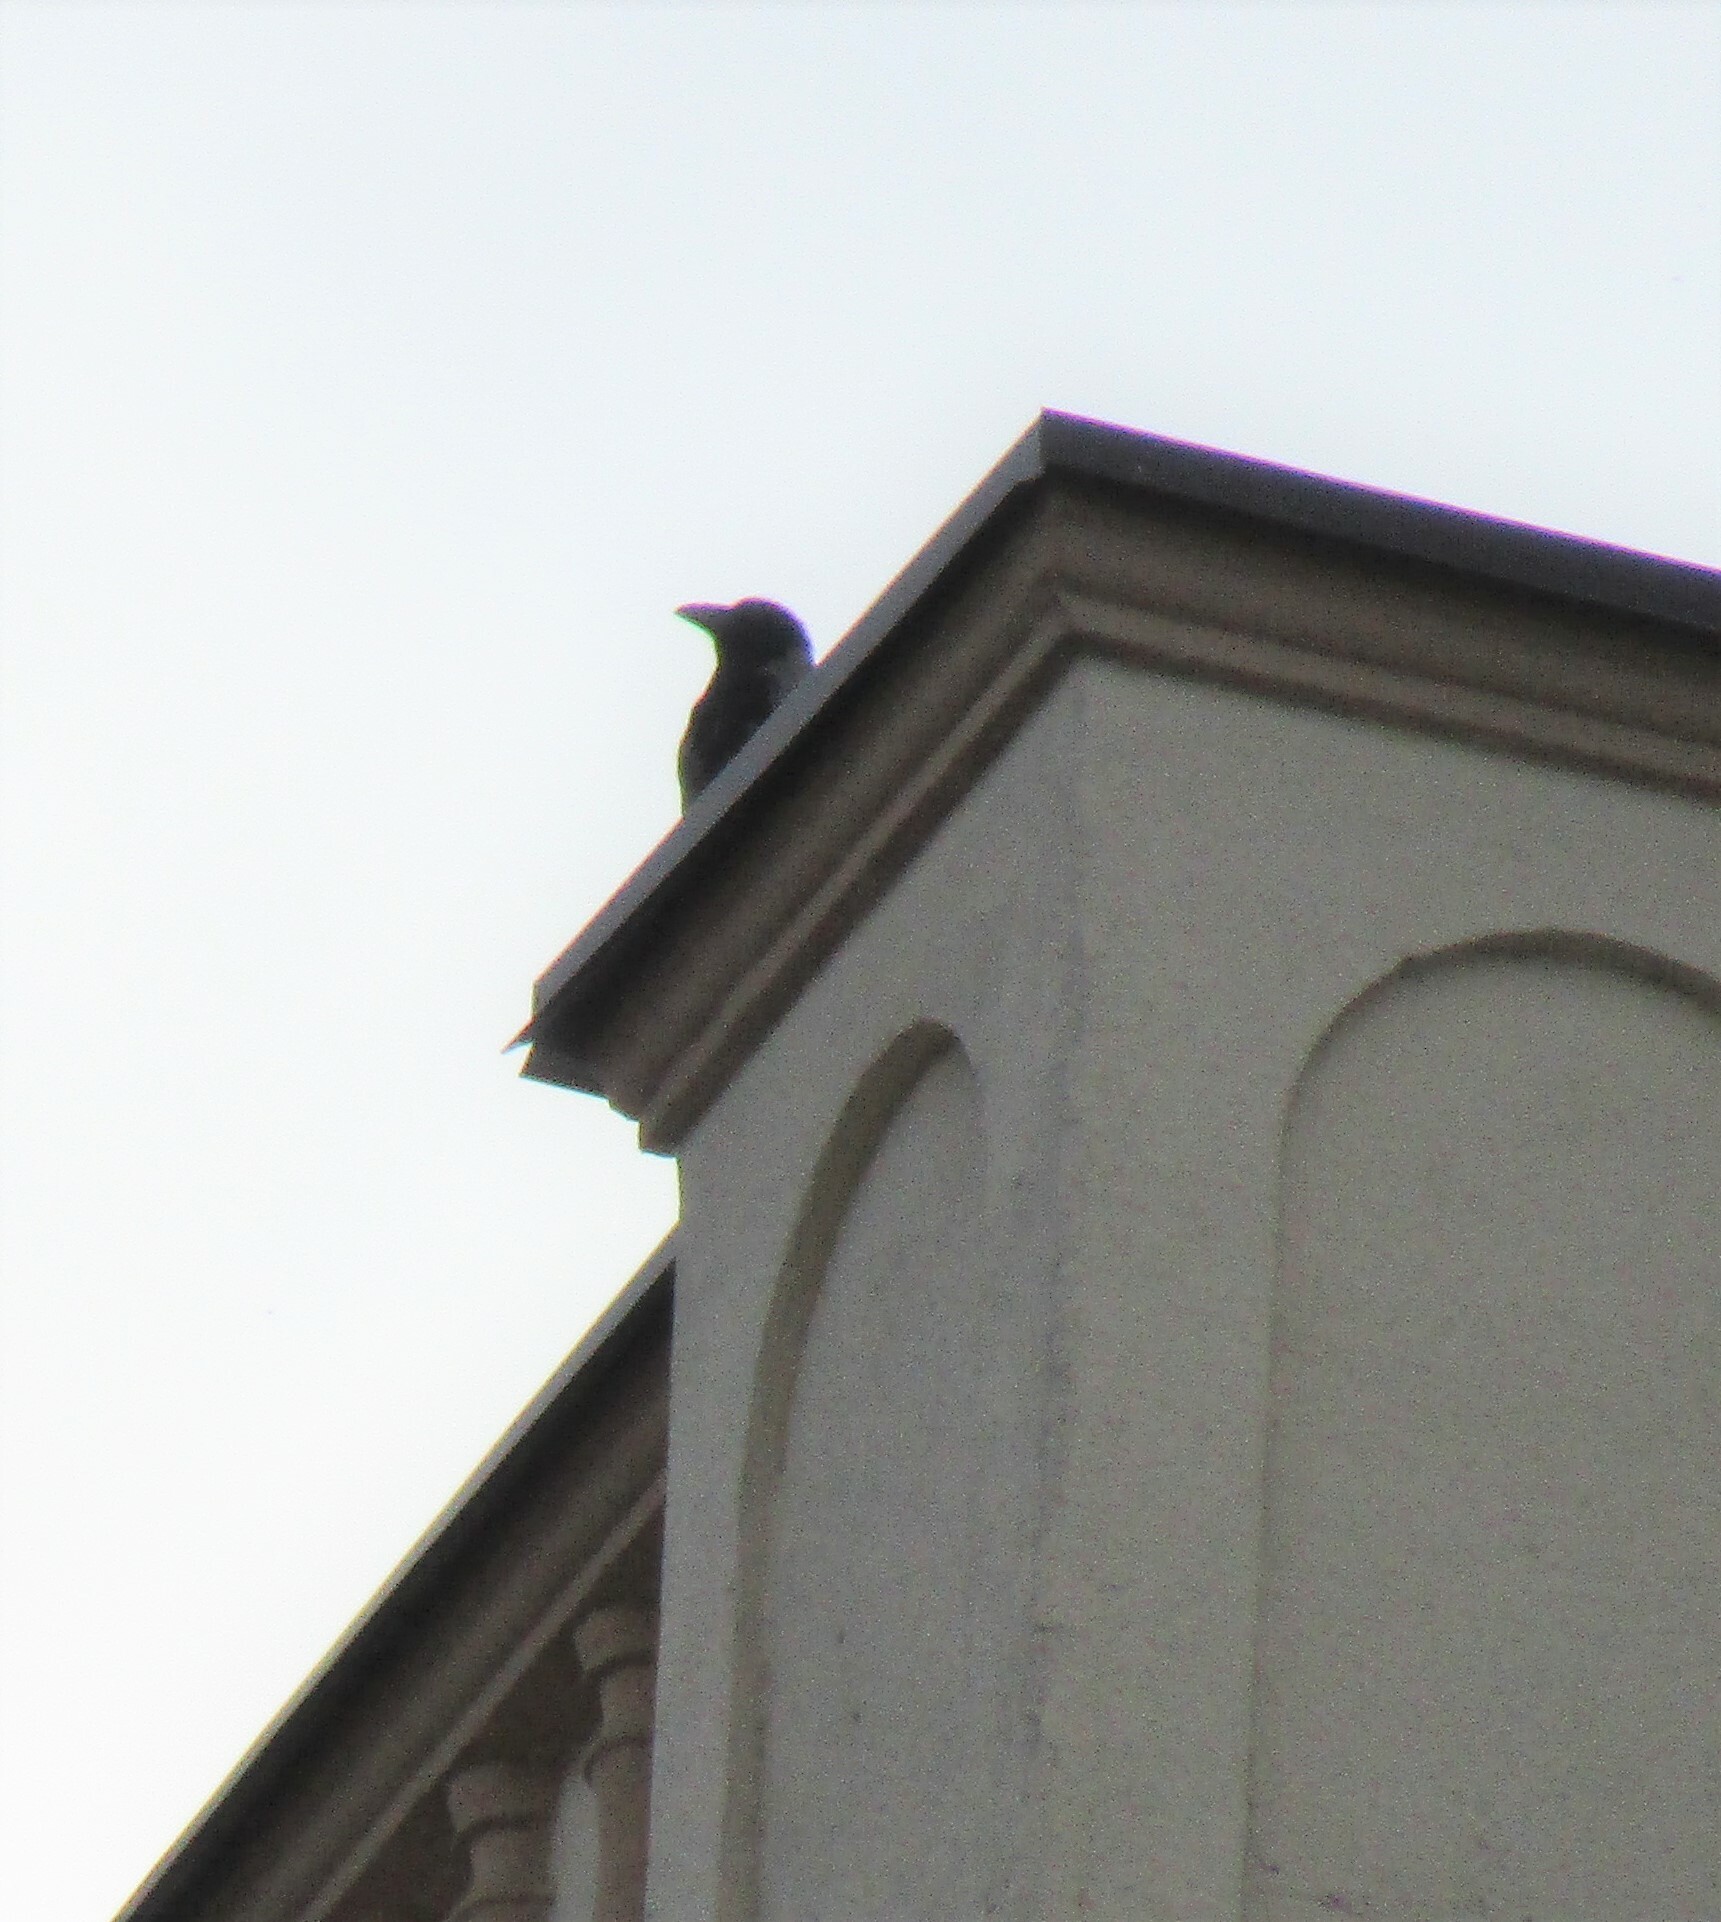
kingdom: Animalia
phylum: Chordata
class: Aves
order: Passeriformes
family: Corvidae
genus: Corvus
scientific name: Corvus cornix
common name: Hooded crow
